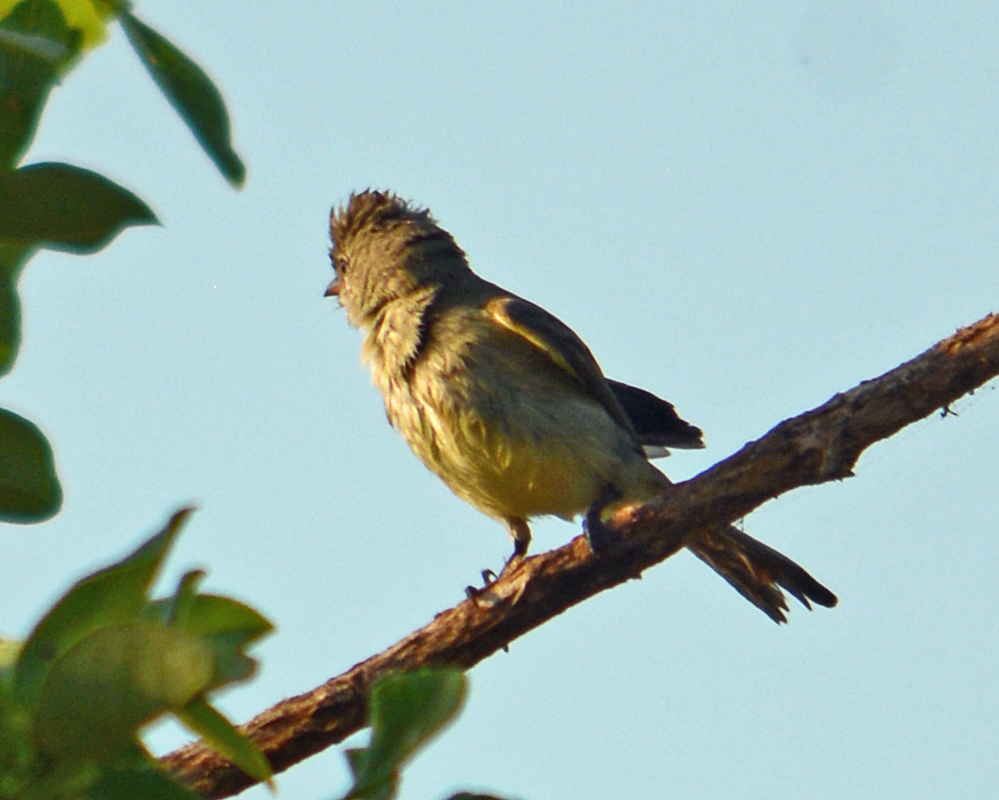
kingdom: Animalia
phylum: Chordata
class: Aves
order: Passeriformes
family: Tyrannidae
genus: Camptostoma
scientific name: Camptostoma imberbe
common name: Northern beardless-tyrannulet
